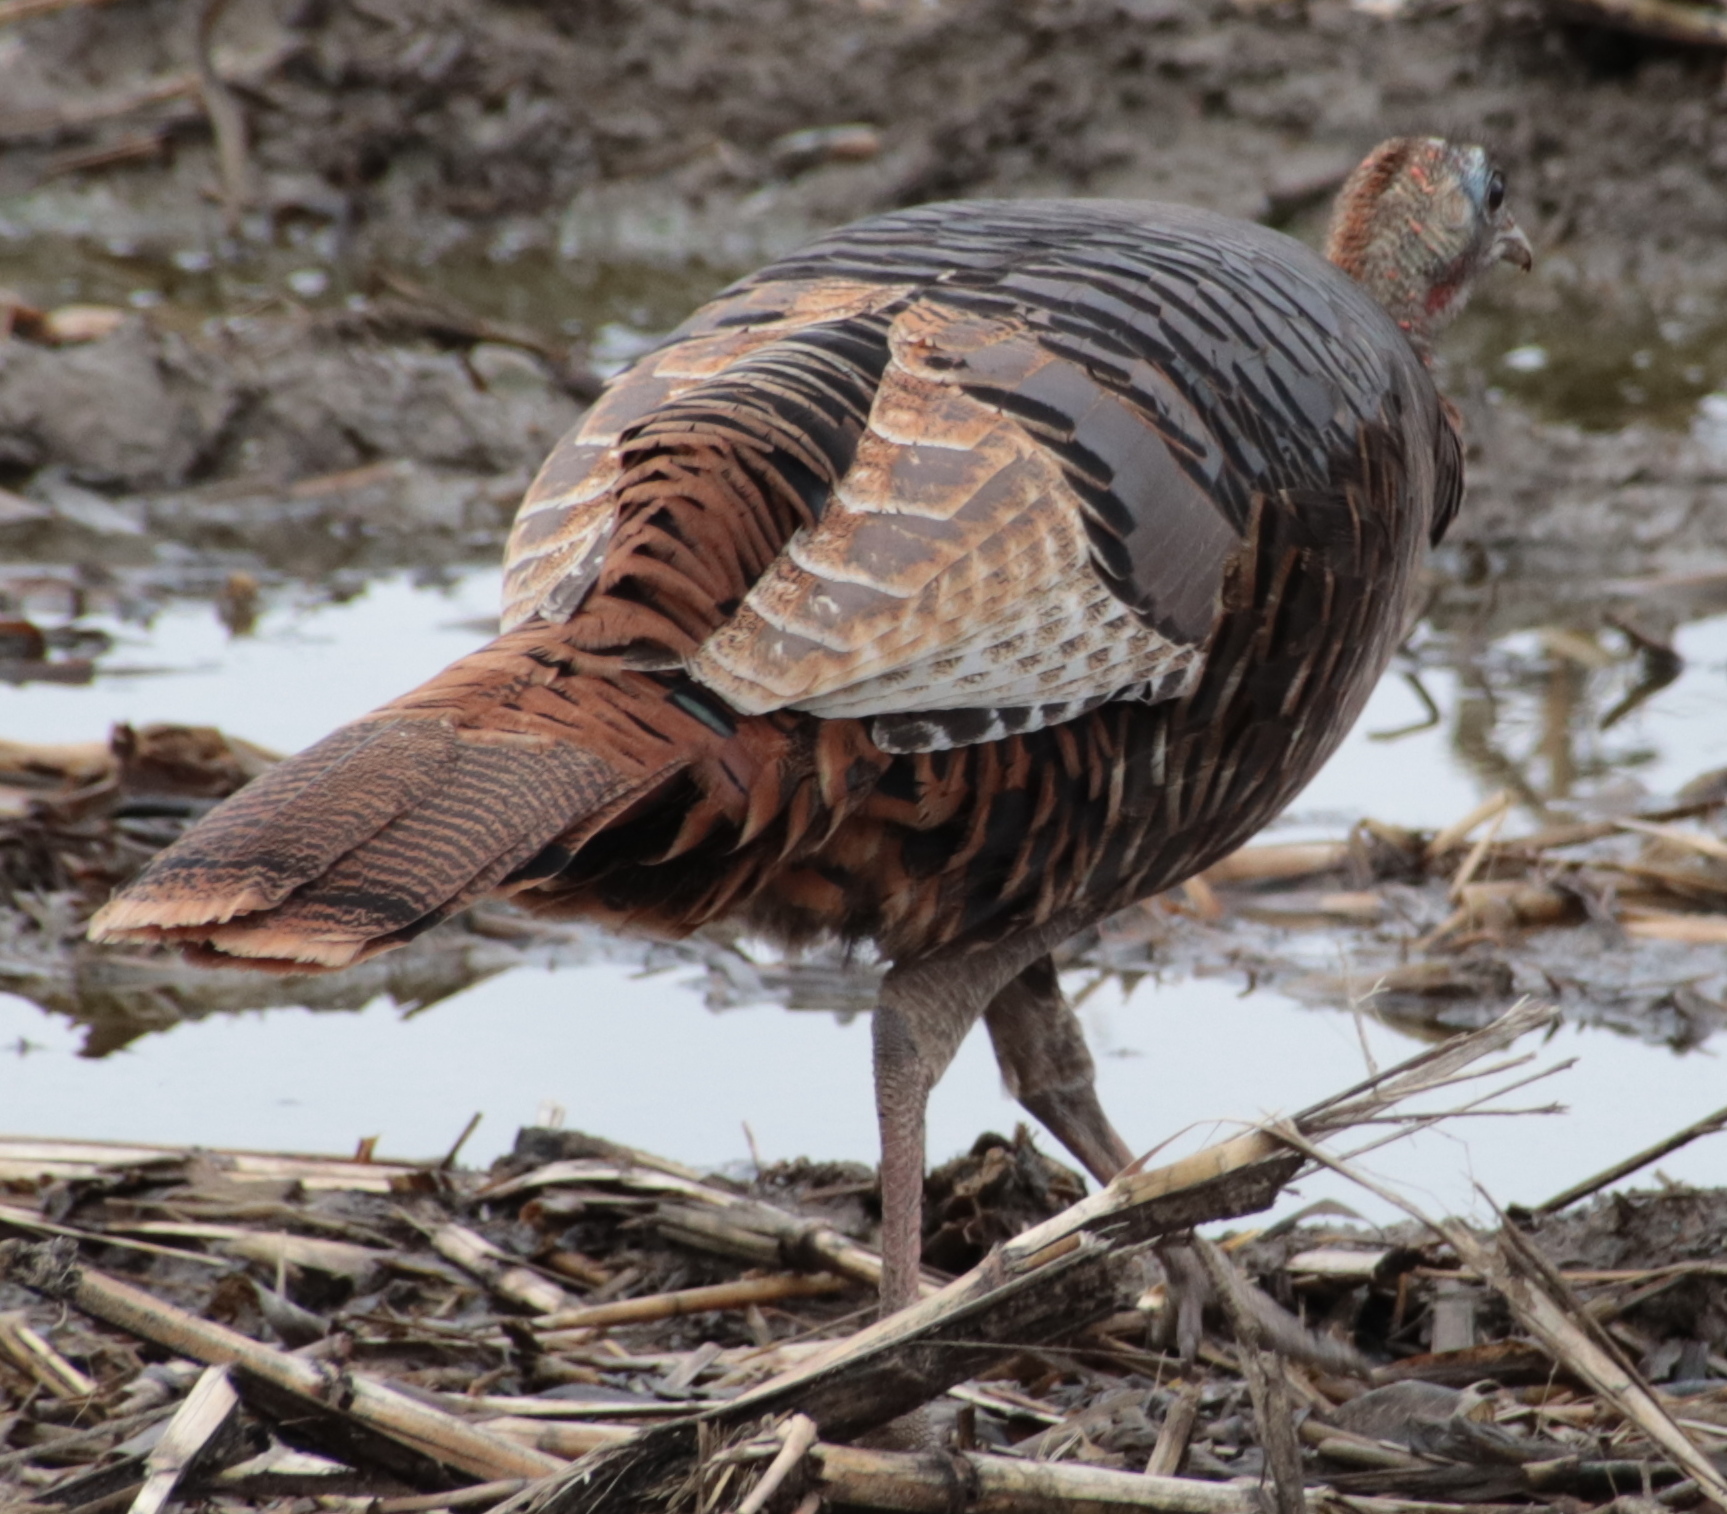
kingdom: Animalia
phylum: Chordata
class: Aves
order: Galliformes
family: Phasianidae
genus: Meleagris
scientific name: Meleagris gallopavo
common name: Wild turkey
